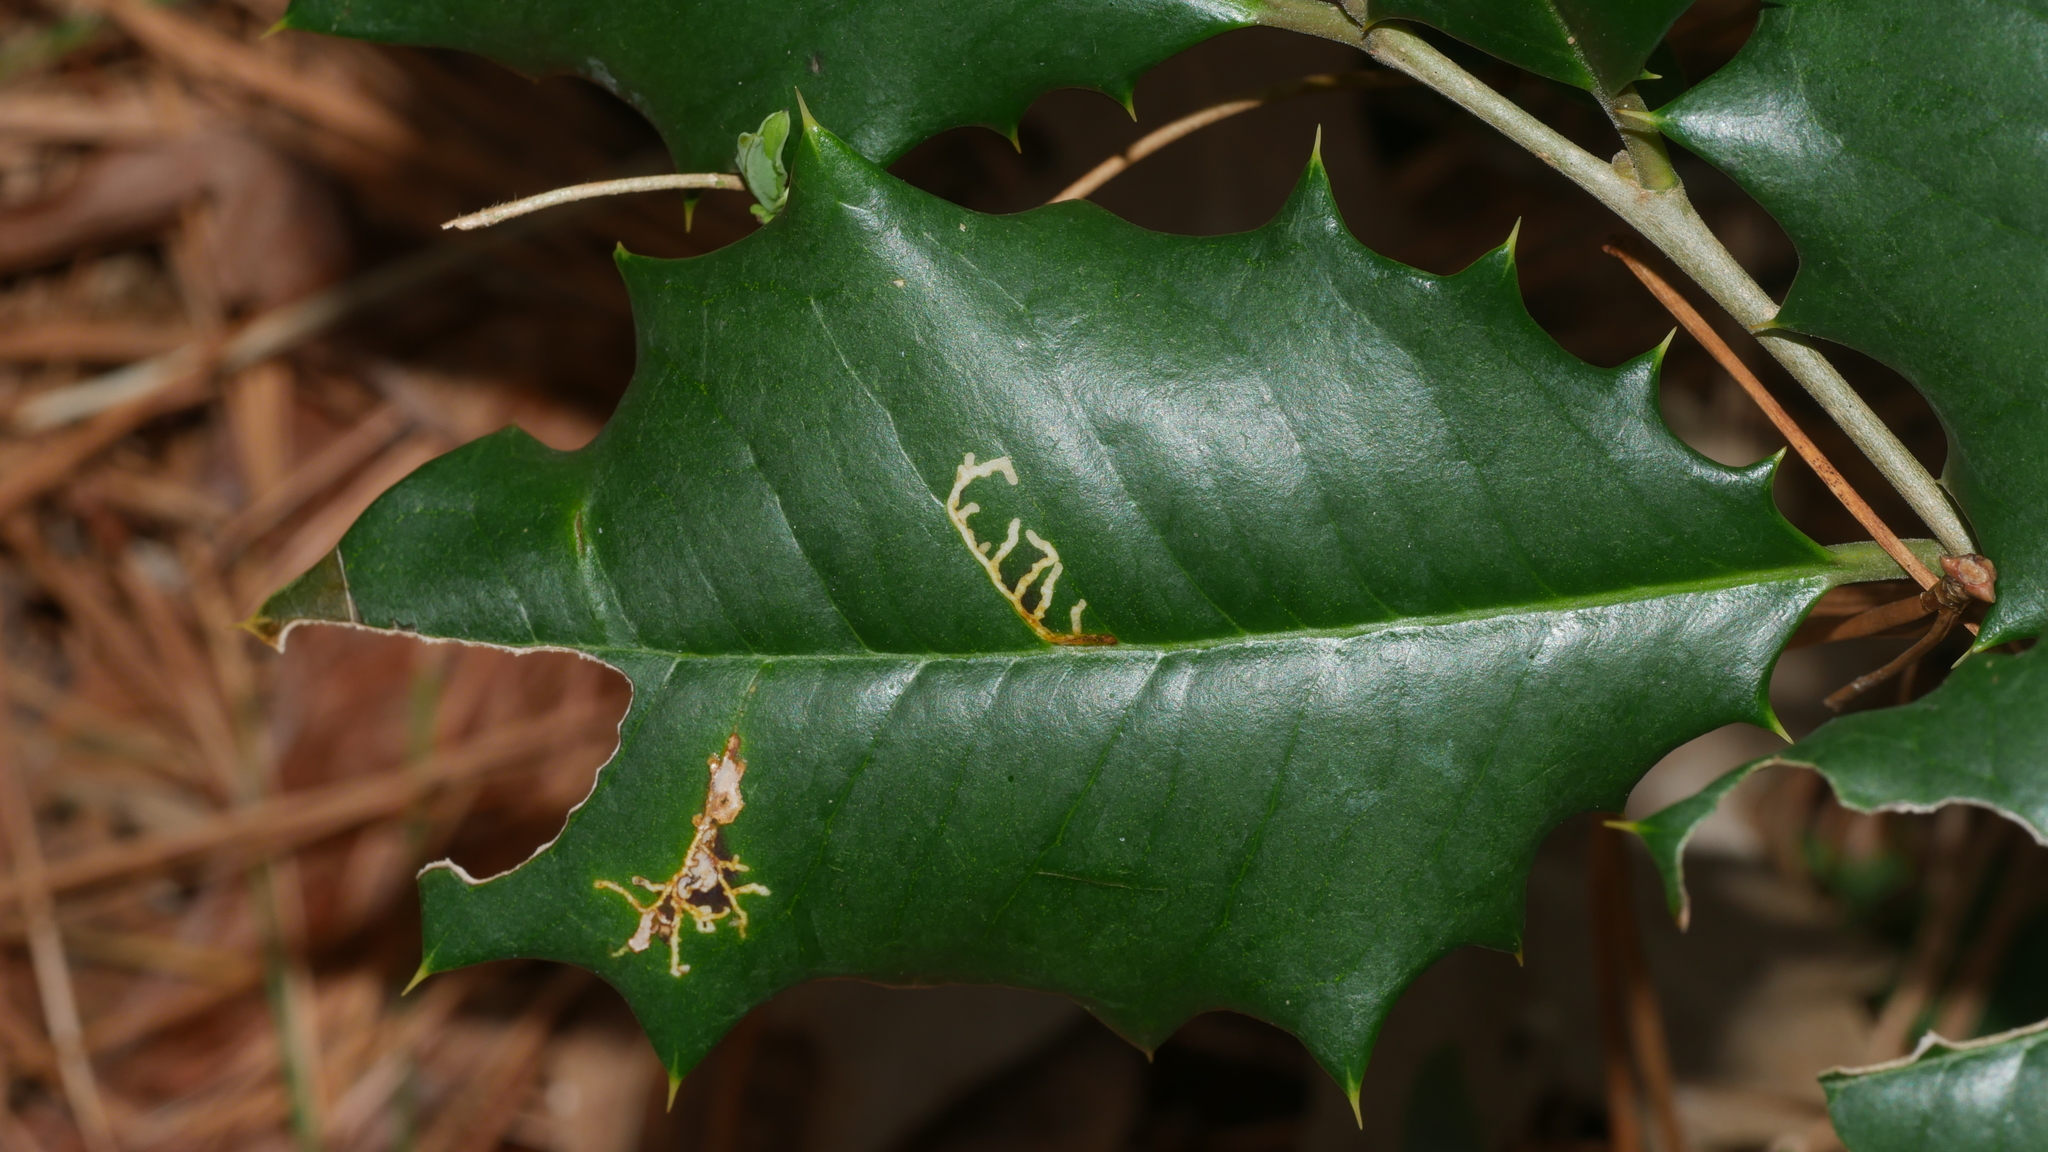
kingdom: Animalia
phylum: Arthropoda
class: Insecta
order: Lepidoptera
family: Tortricidae
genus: Rhopobota
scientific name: Rhopobota
